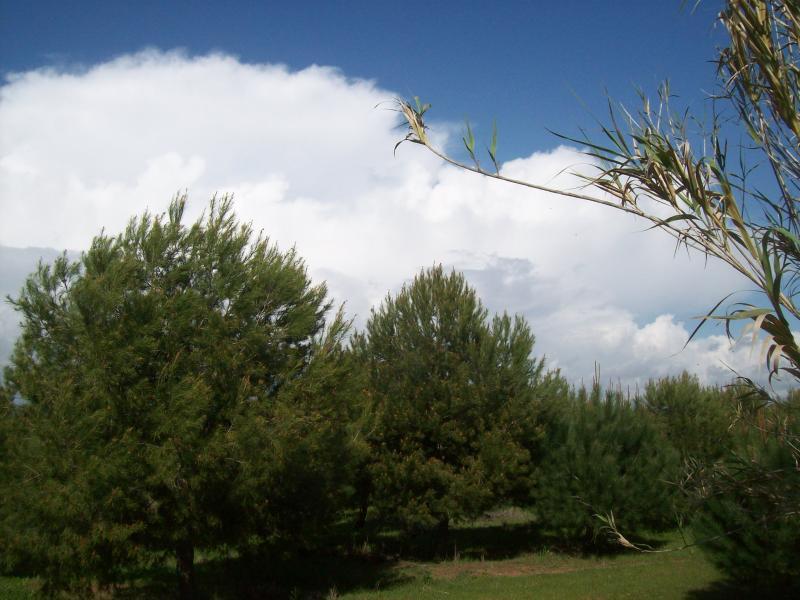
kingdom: Plantae
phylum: Tracheophyta
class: Liliopsida
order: Poales
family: Poaceae
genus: Arundo
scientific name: Arundo donax
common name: Giant reed
